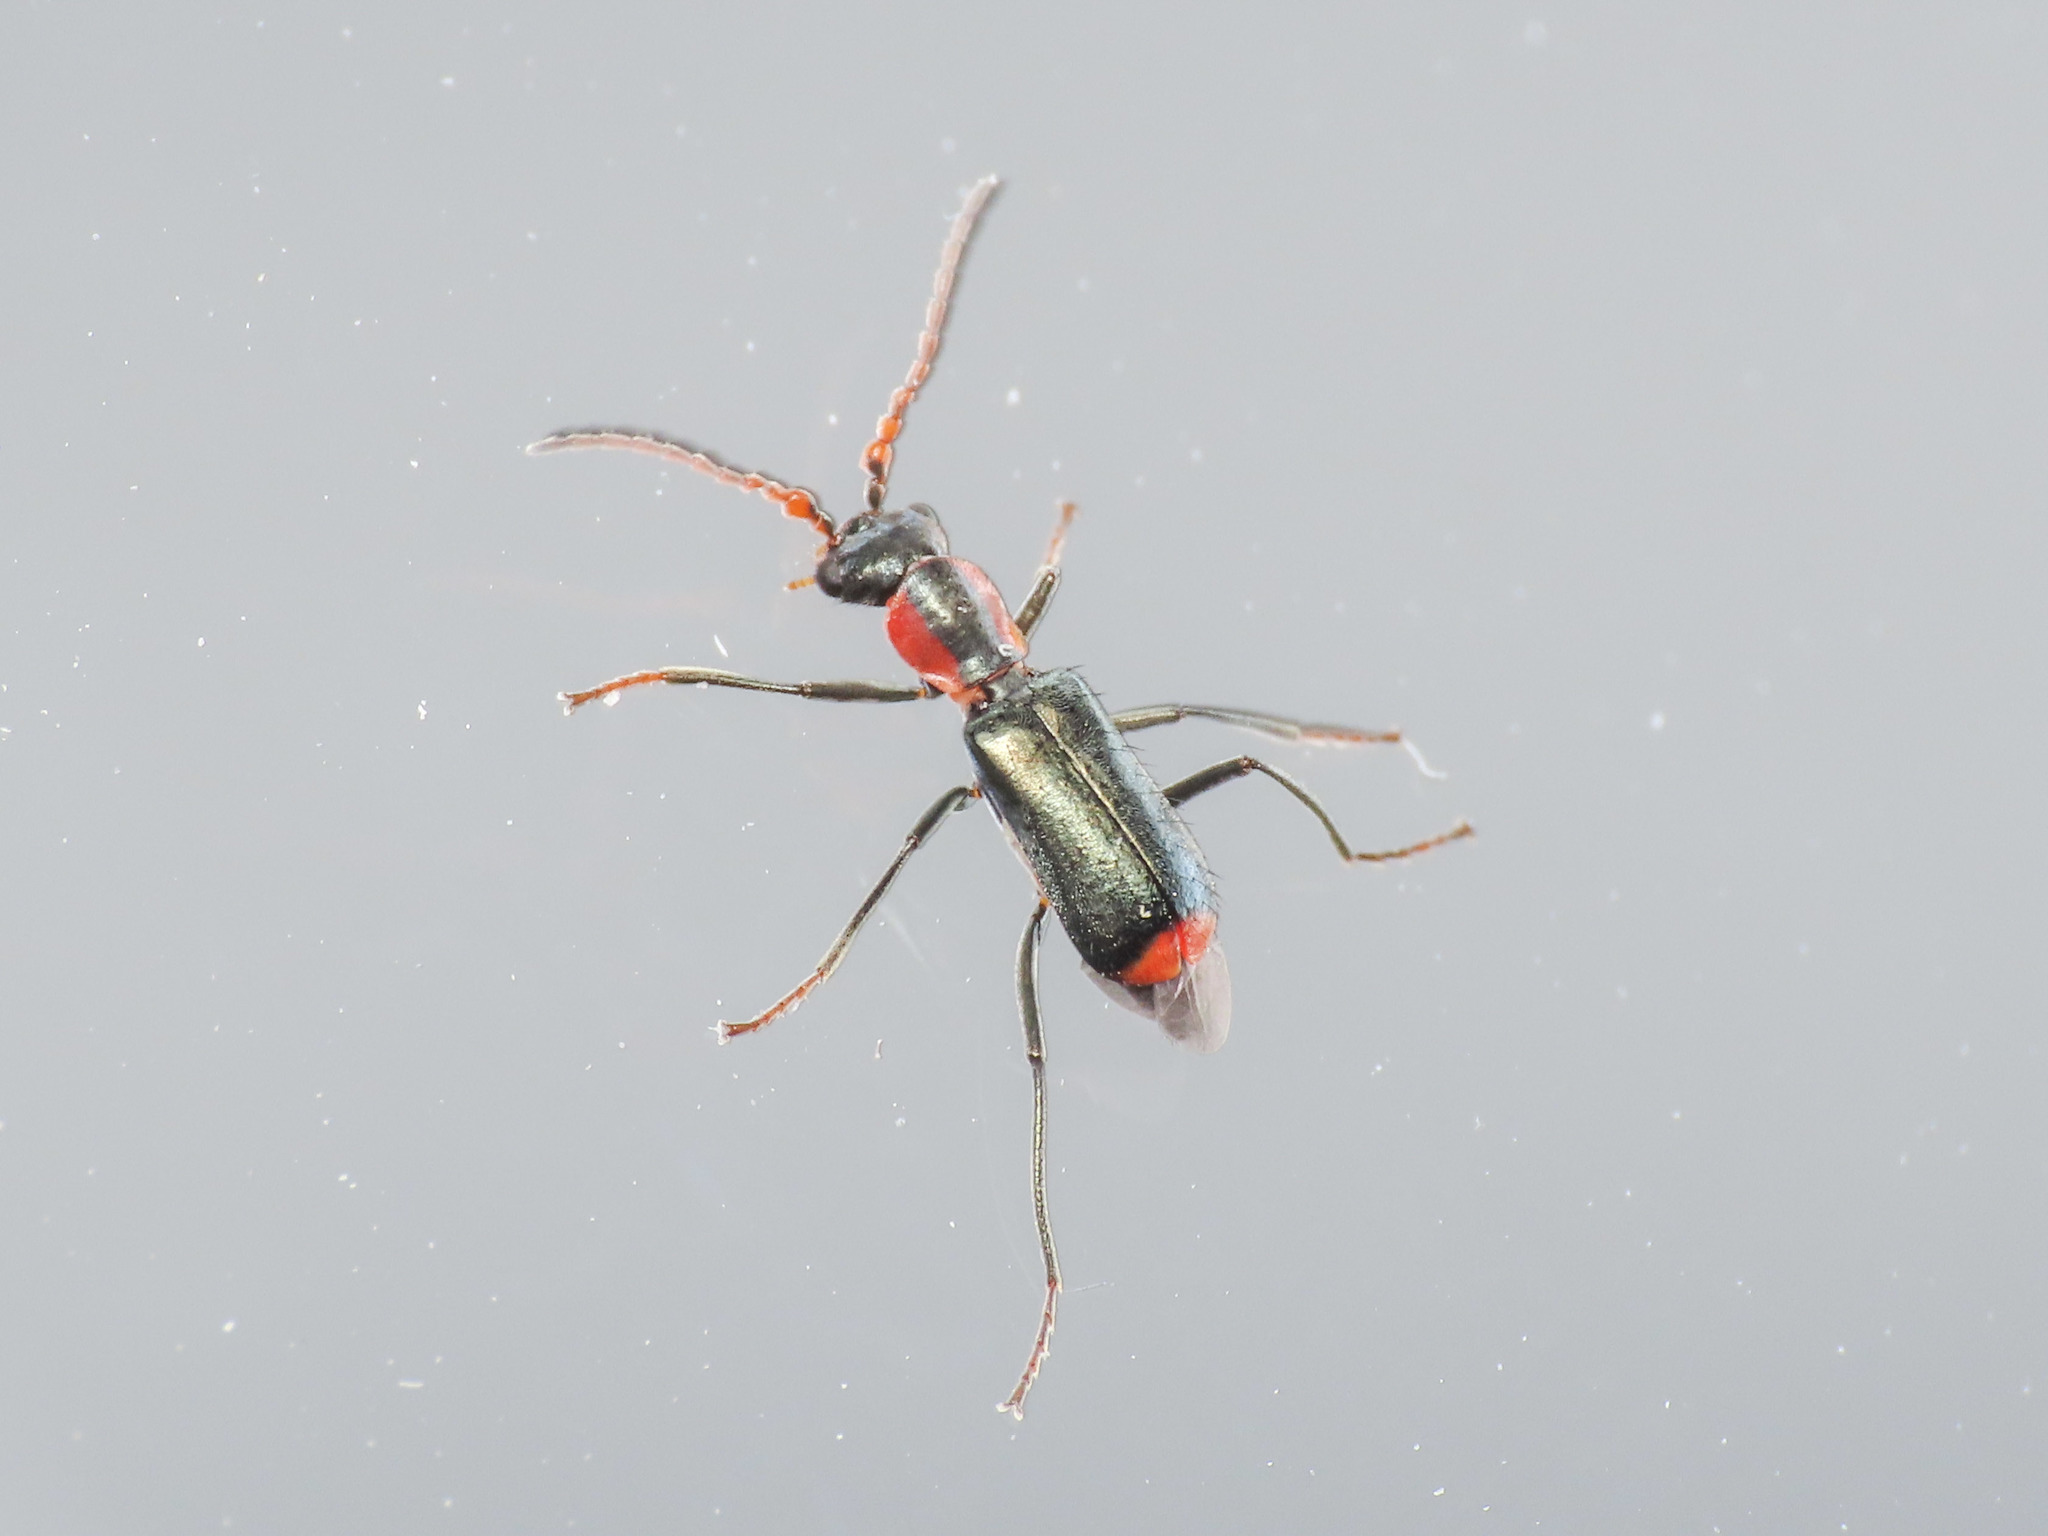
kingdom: Animalia
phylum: Arthropoda
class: Insecta
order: Coleoptera
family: Melyridae
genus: Cyrtosus
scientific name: Cyrtosus cyanipennis
